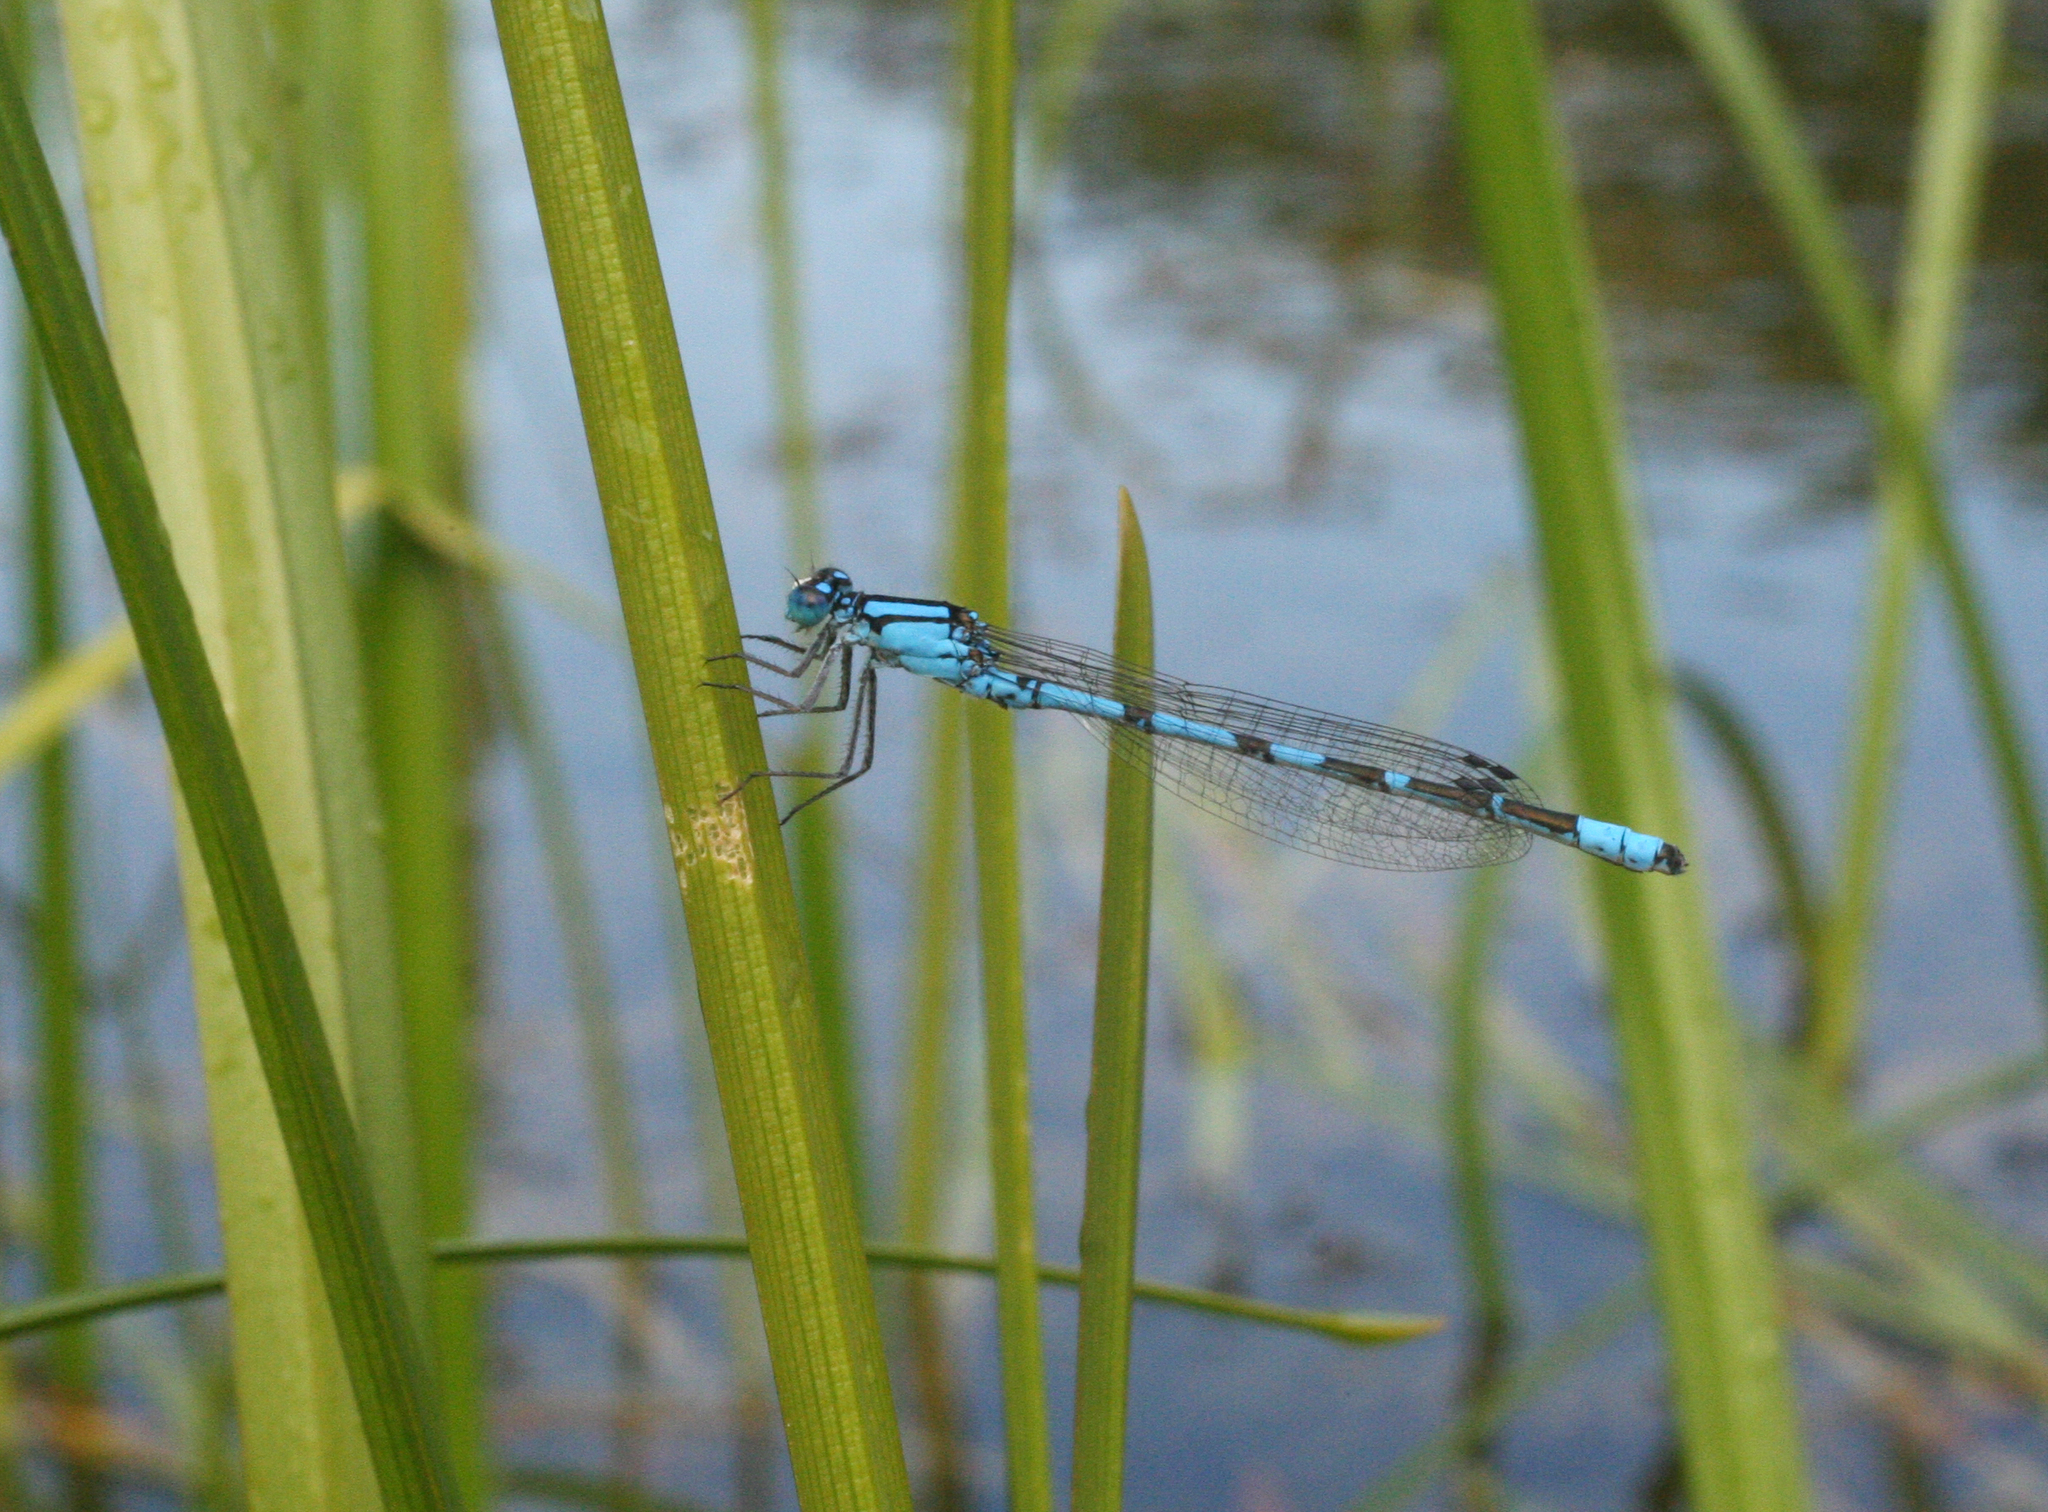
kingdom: Animalia
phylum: Arthropoda
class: Insecta
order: Odonata
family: Coenagrionidae
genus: Enallagma
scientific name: Enallagma cyathigerum
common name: Common blue damselfly
